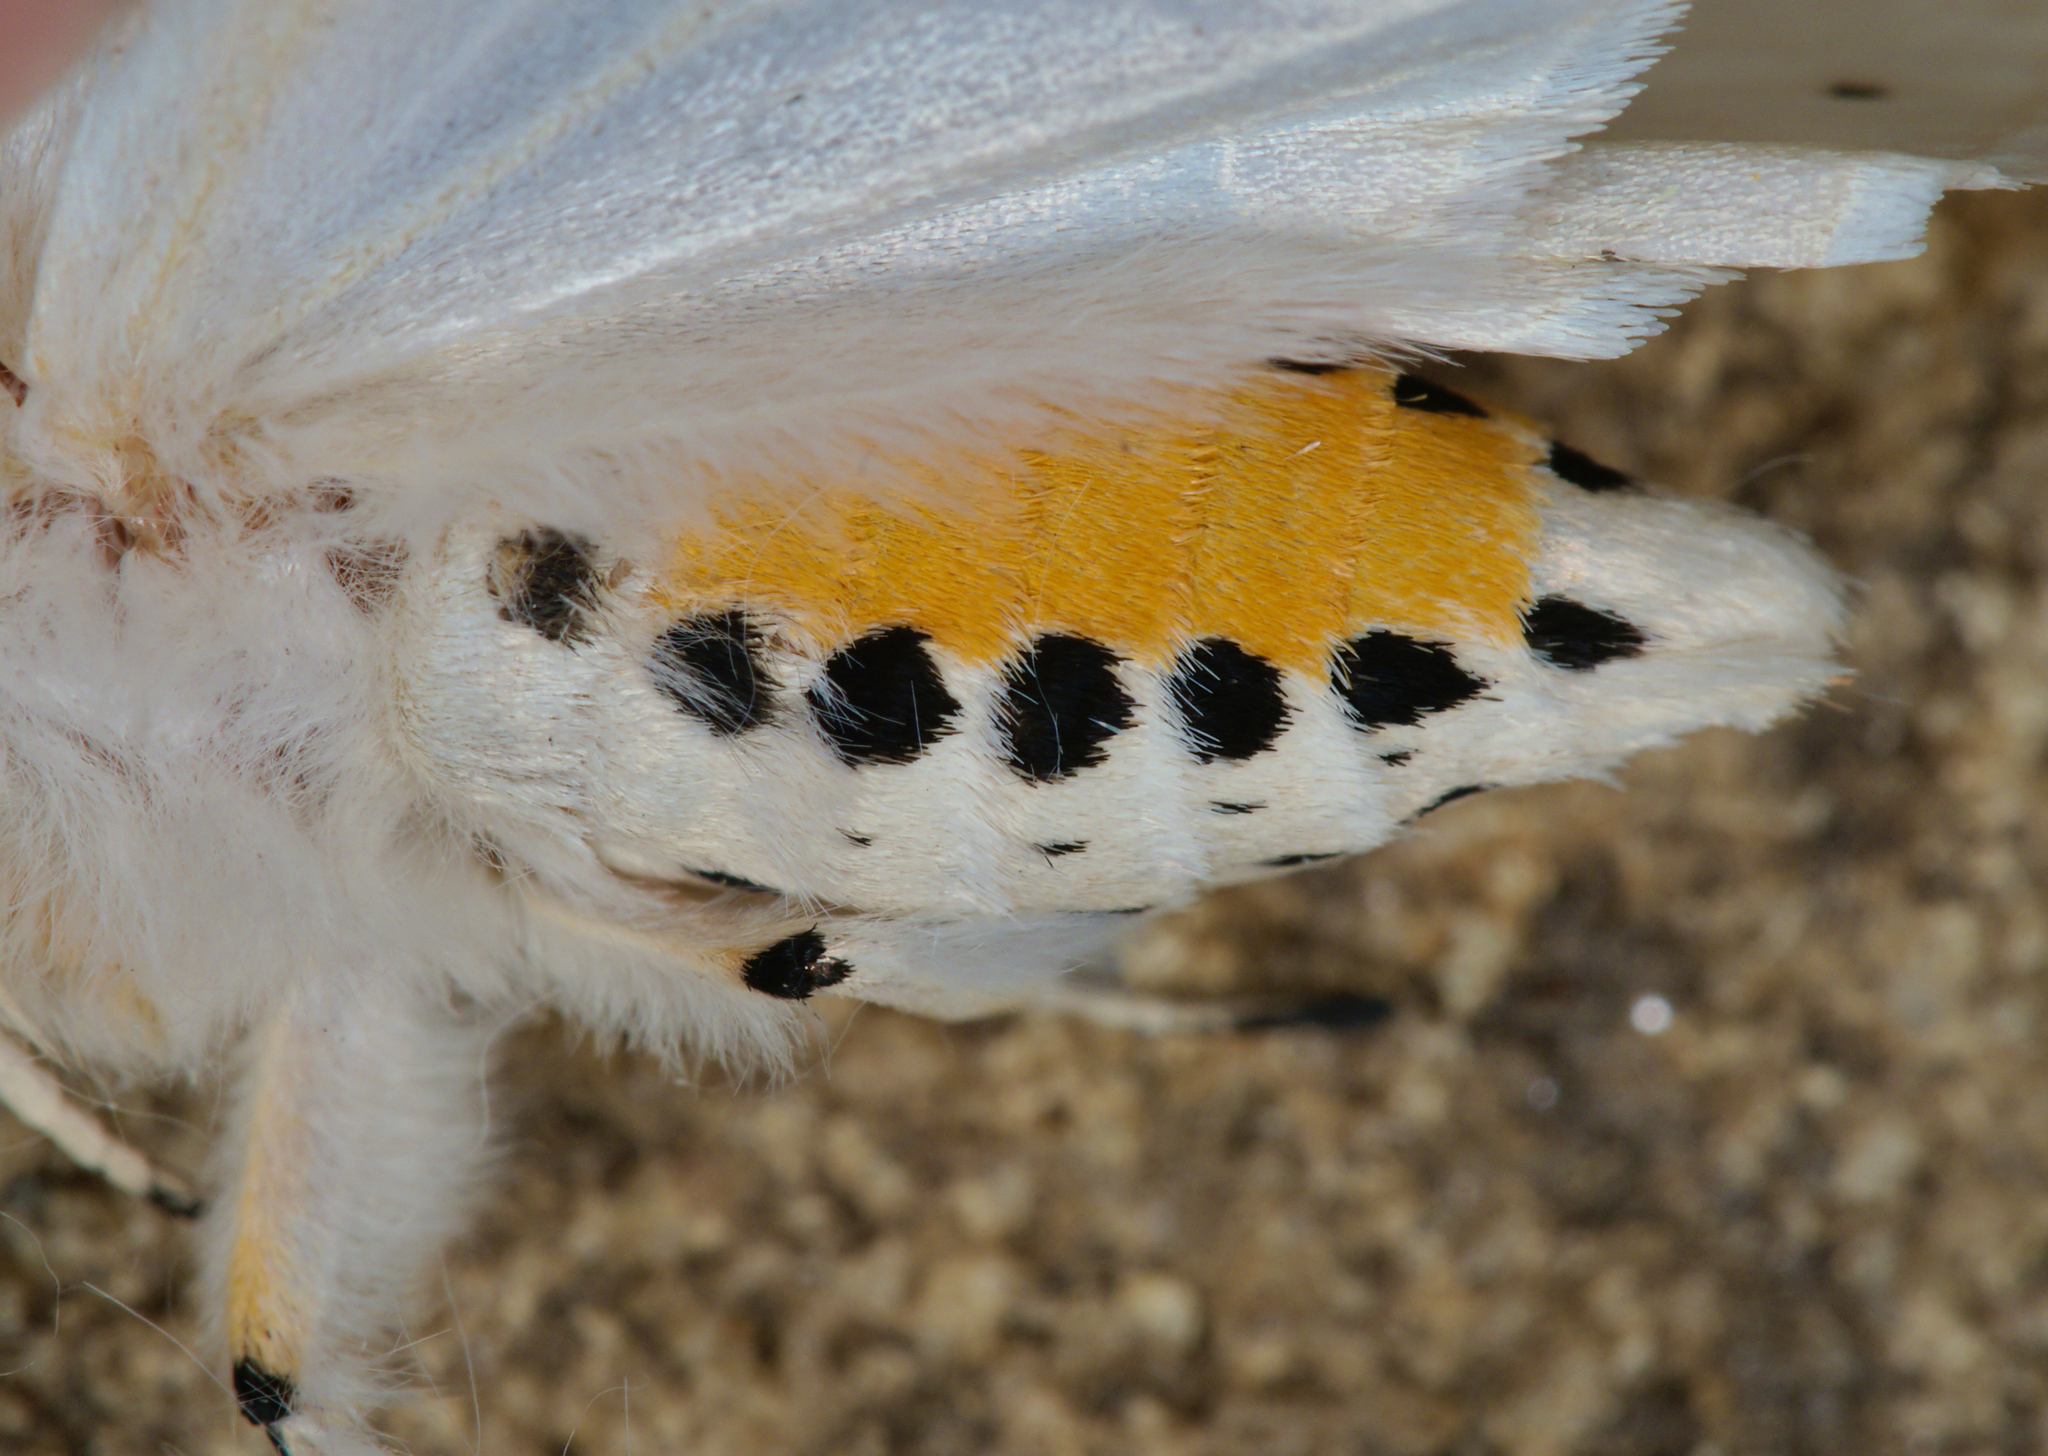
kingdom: Animalia
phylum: Arthropoda
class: Insecta
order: Lepidoptera
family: Erebidae
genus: Spilosoma
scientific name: Spilosoma lubricipeda
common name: White ermine
